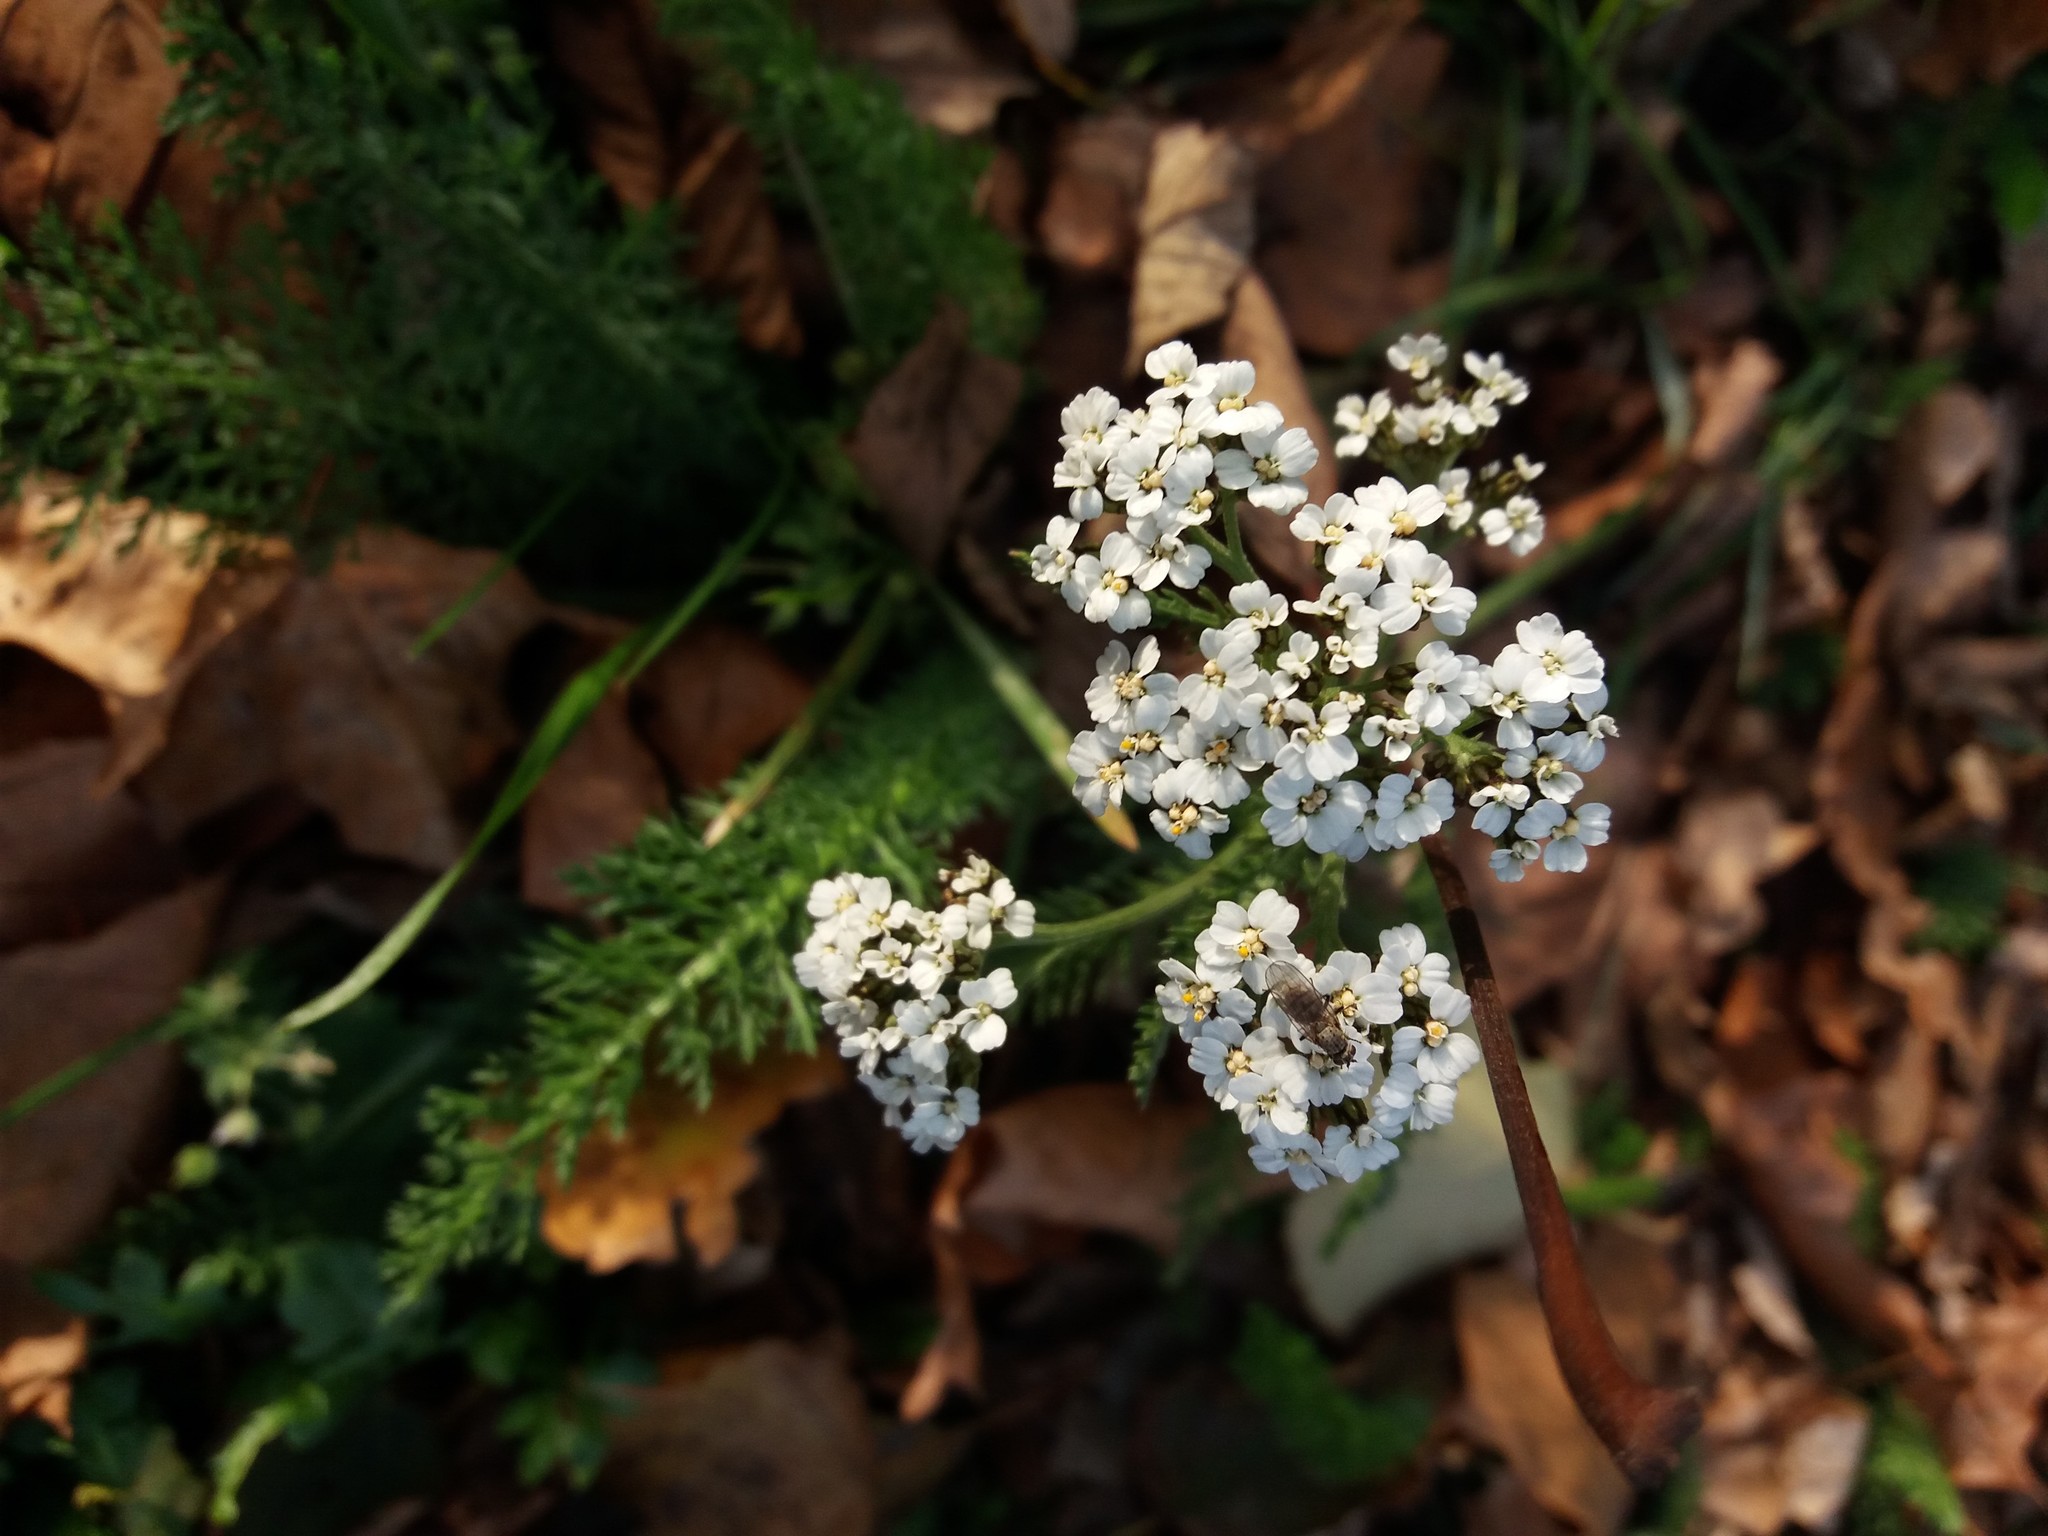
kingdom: Plantae
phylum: Tracheophyta
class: Magnoliopsida
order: Asterales
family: Asteraceae
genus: Achillea
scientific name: Achillea millefolium
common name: Yarrow
